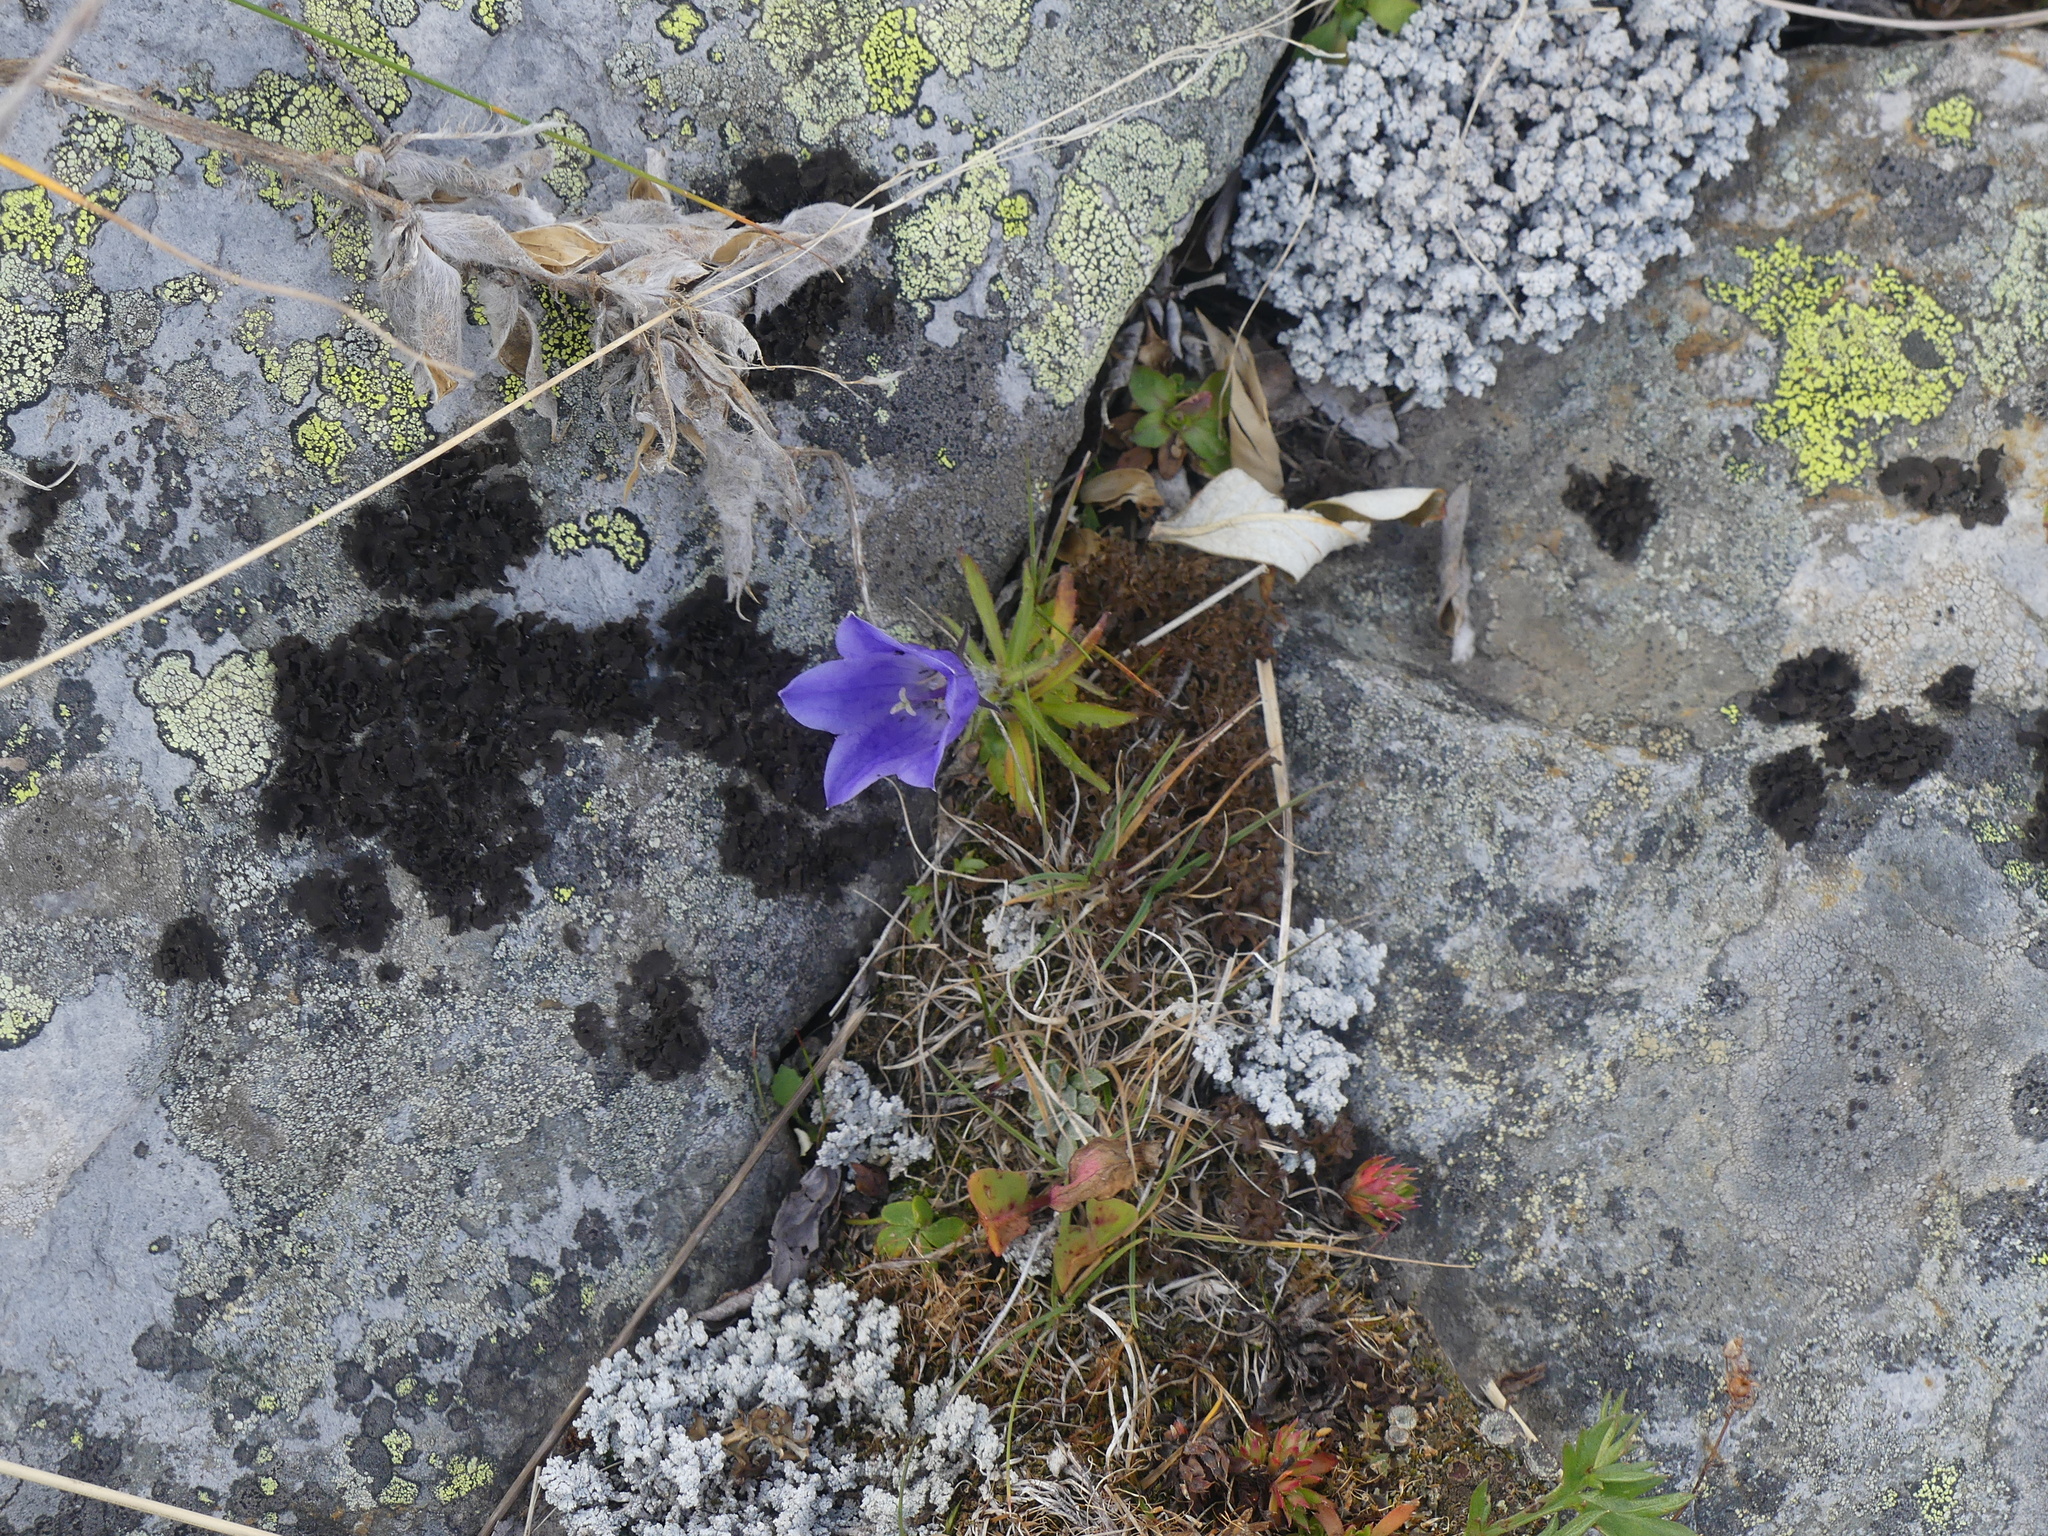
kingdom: Plantae
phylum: Tracheophyta
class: Magnoliopsida
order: Asterales
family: Campanulaceae
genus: Campanula
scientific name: Campanula lasiocarpa
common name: Mountain harebell
